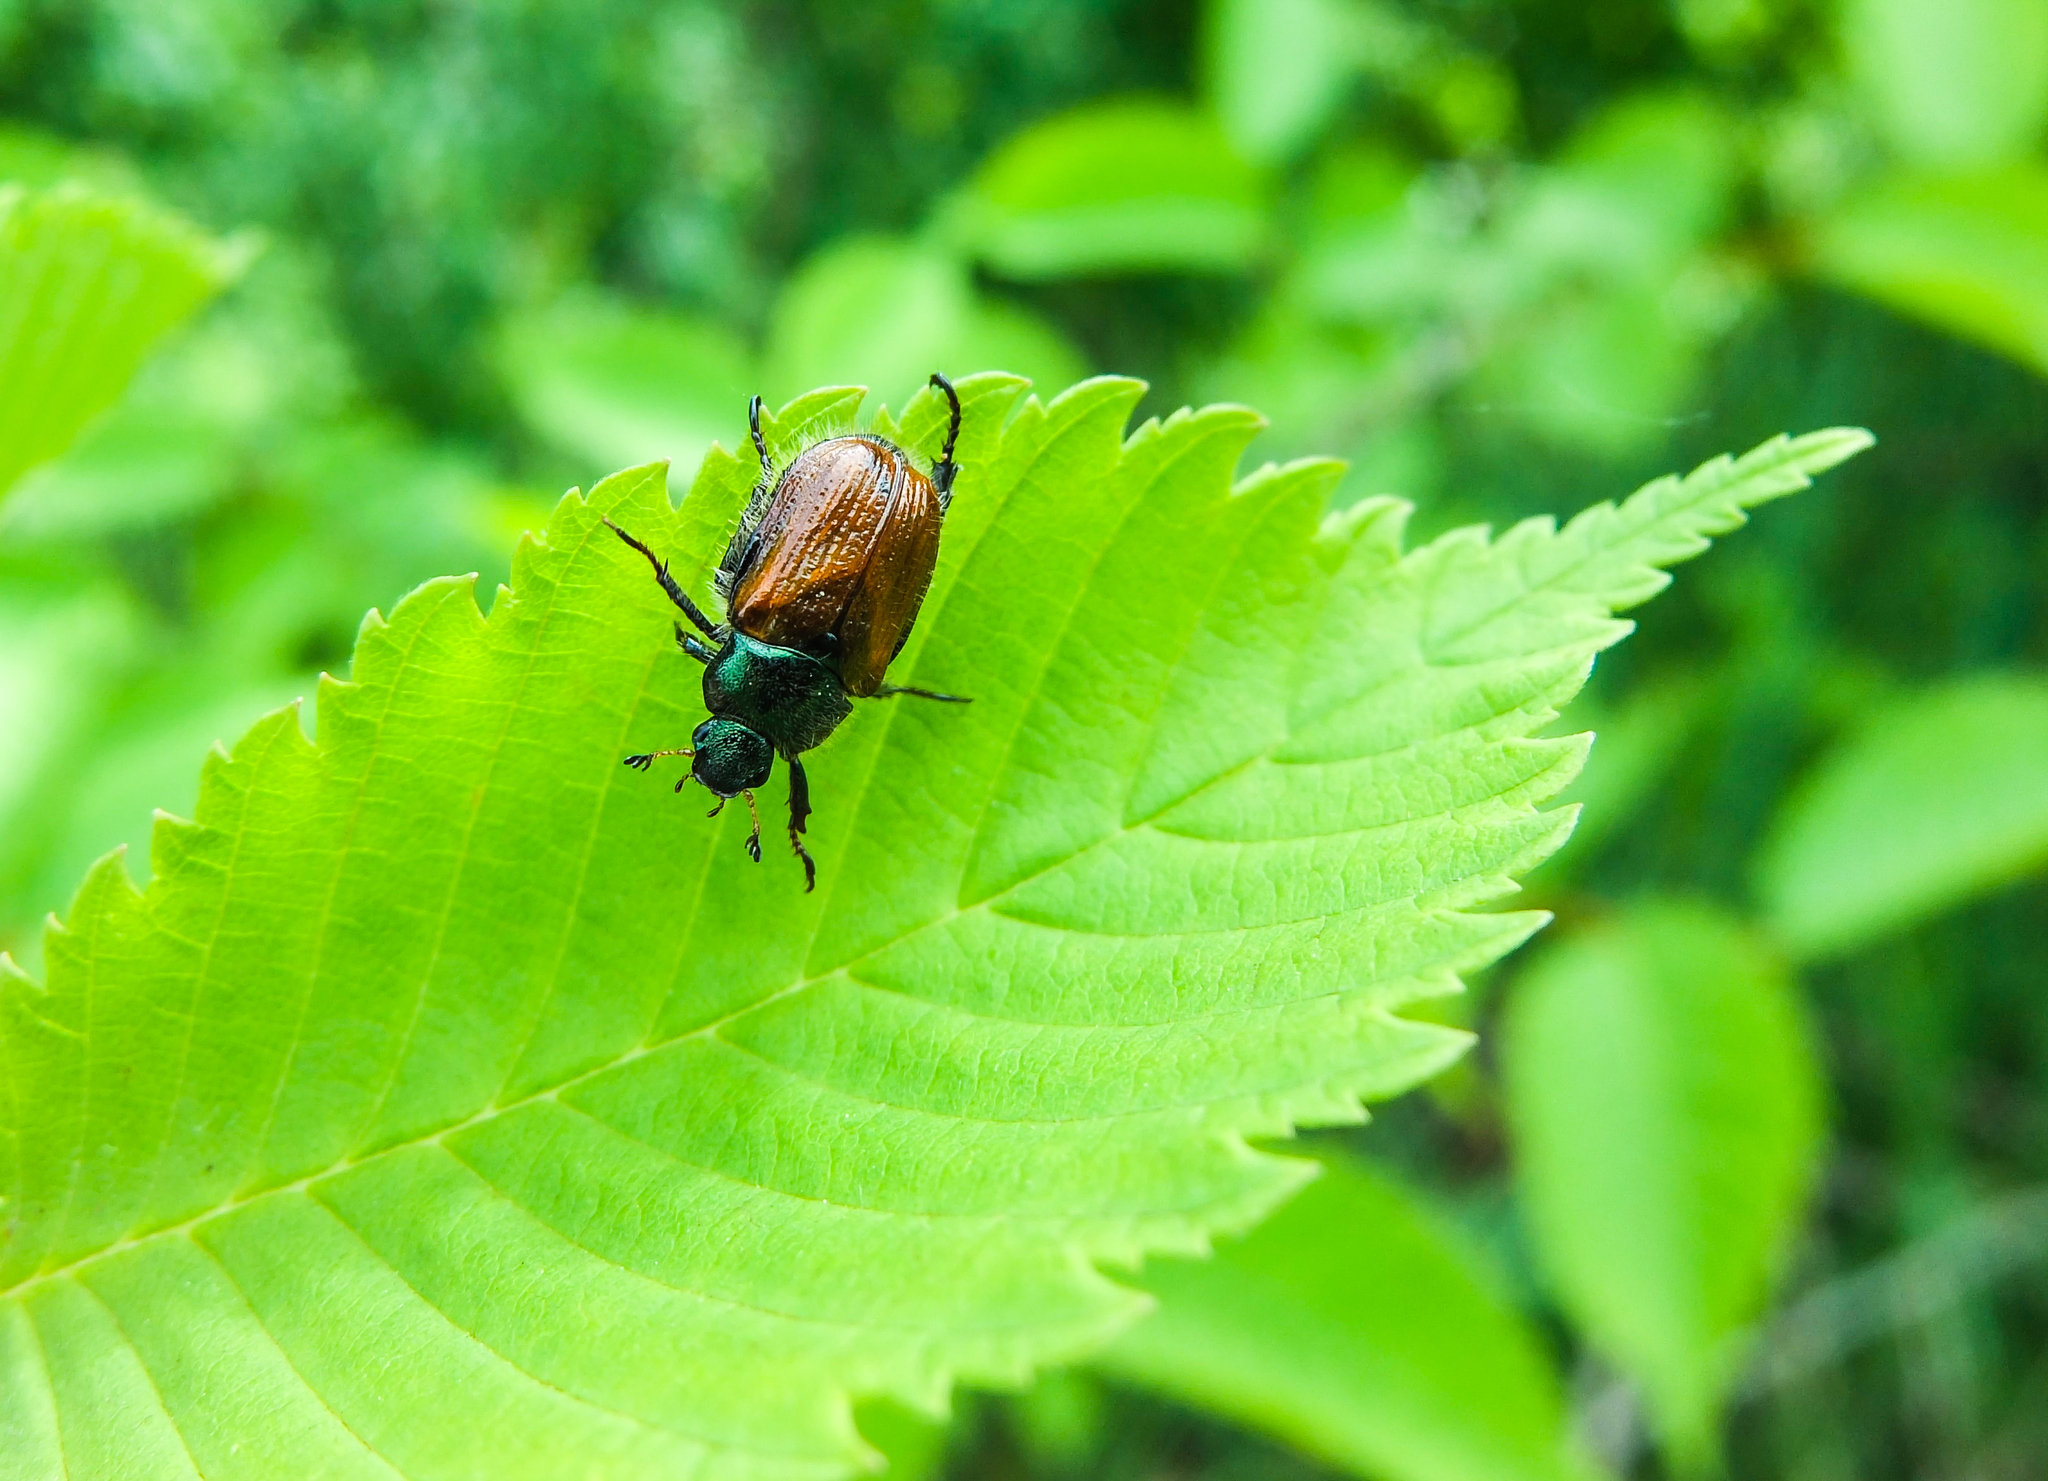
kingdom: Animalia
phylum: Arthropoda
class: Insecta
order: Coleoptera
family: Scarabaeidae
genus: Phyllopertha
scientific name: Phyllopertha horticola
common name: Garden chafer
